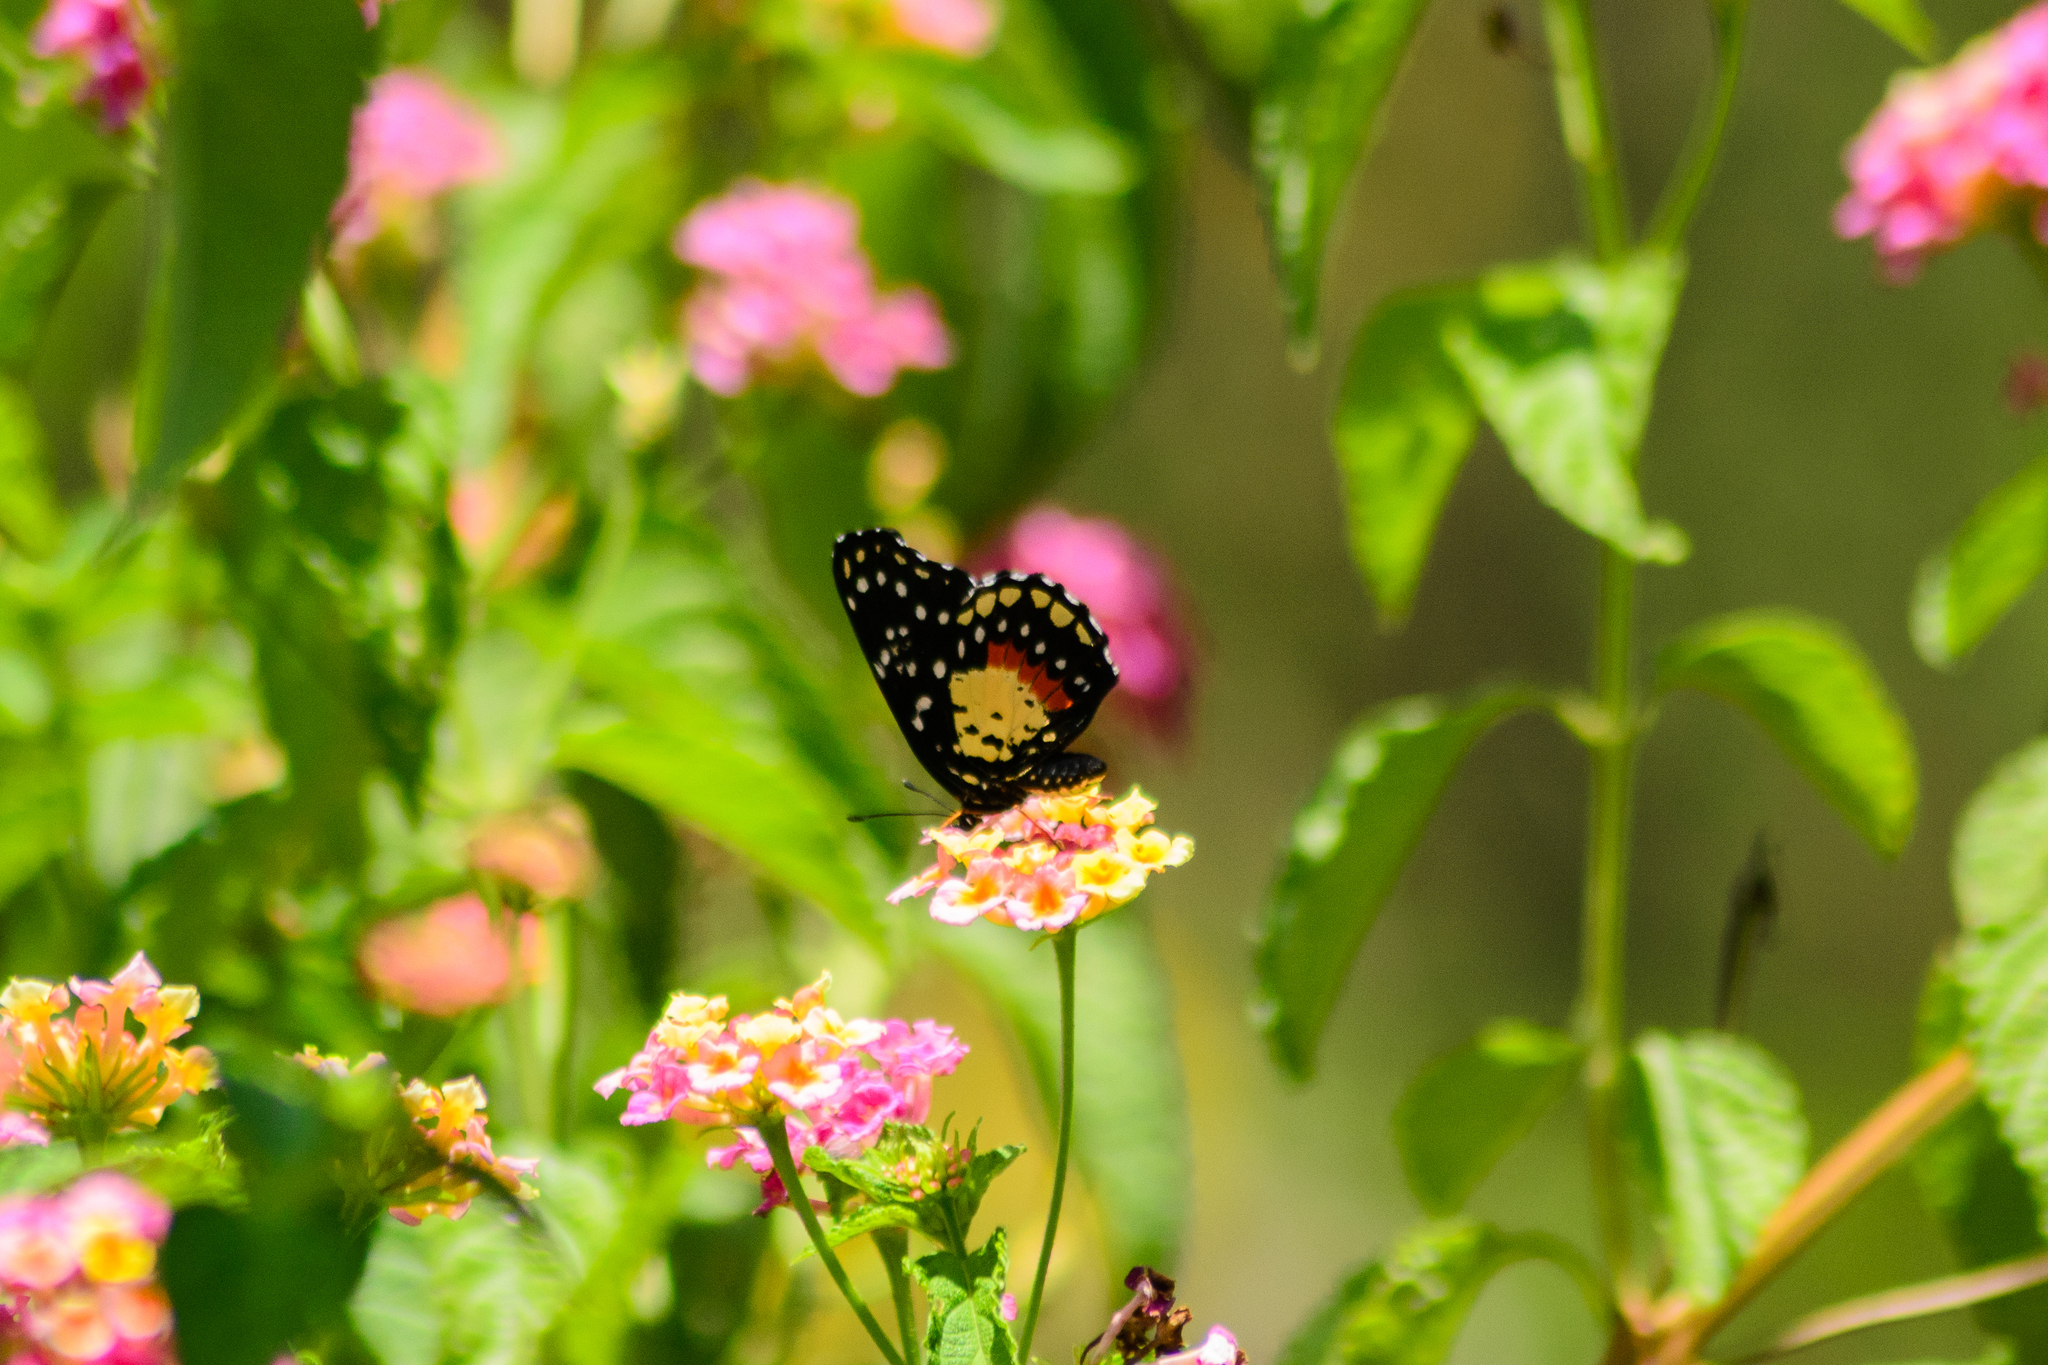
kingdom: Animalia
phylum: Arthropoda
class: Insecta
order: Lepidoptera
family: Nymphalidae
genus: Chlosyne
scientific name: Chlosyne janais
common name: Crimson patch
